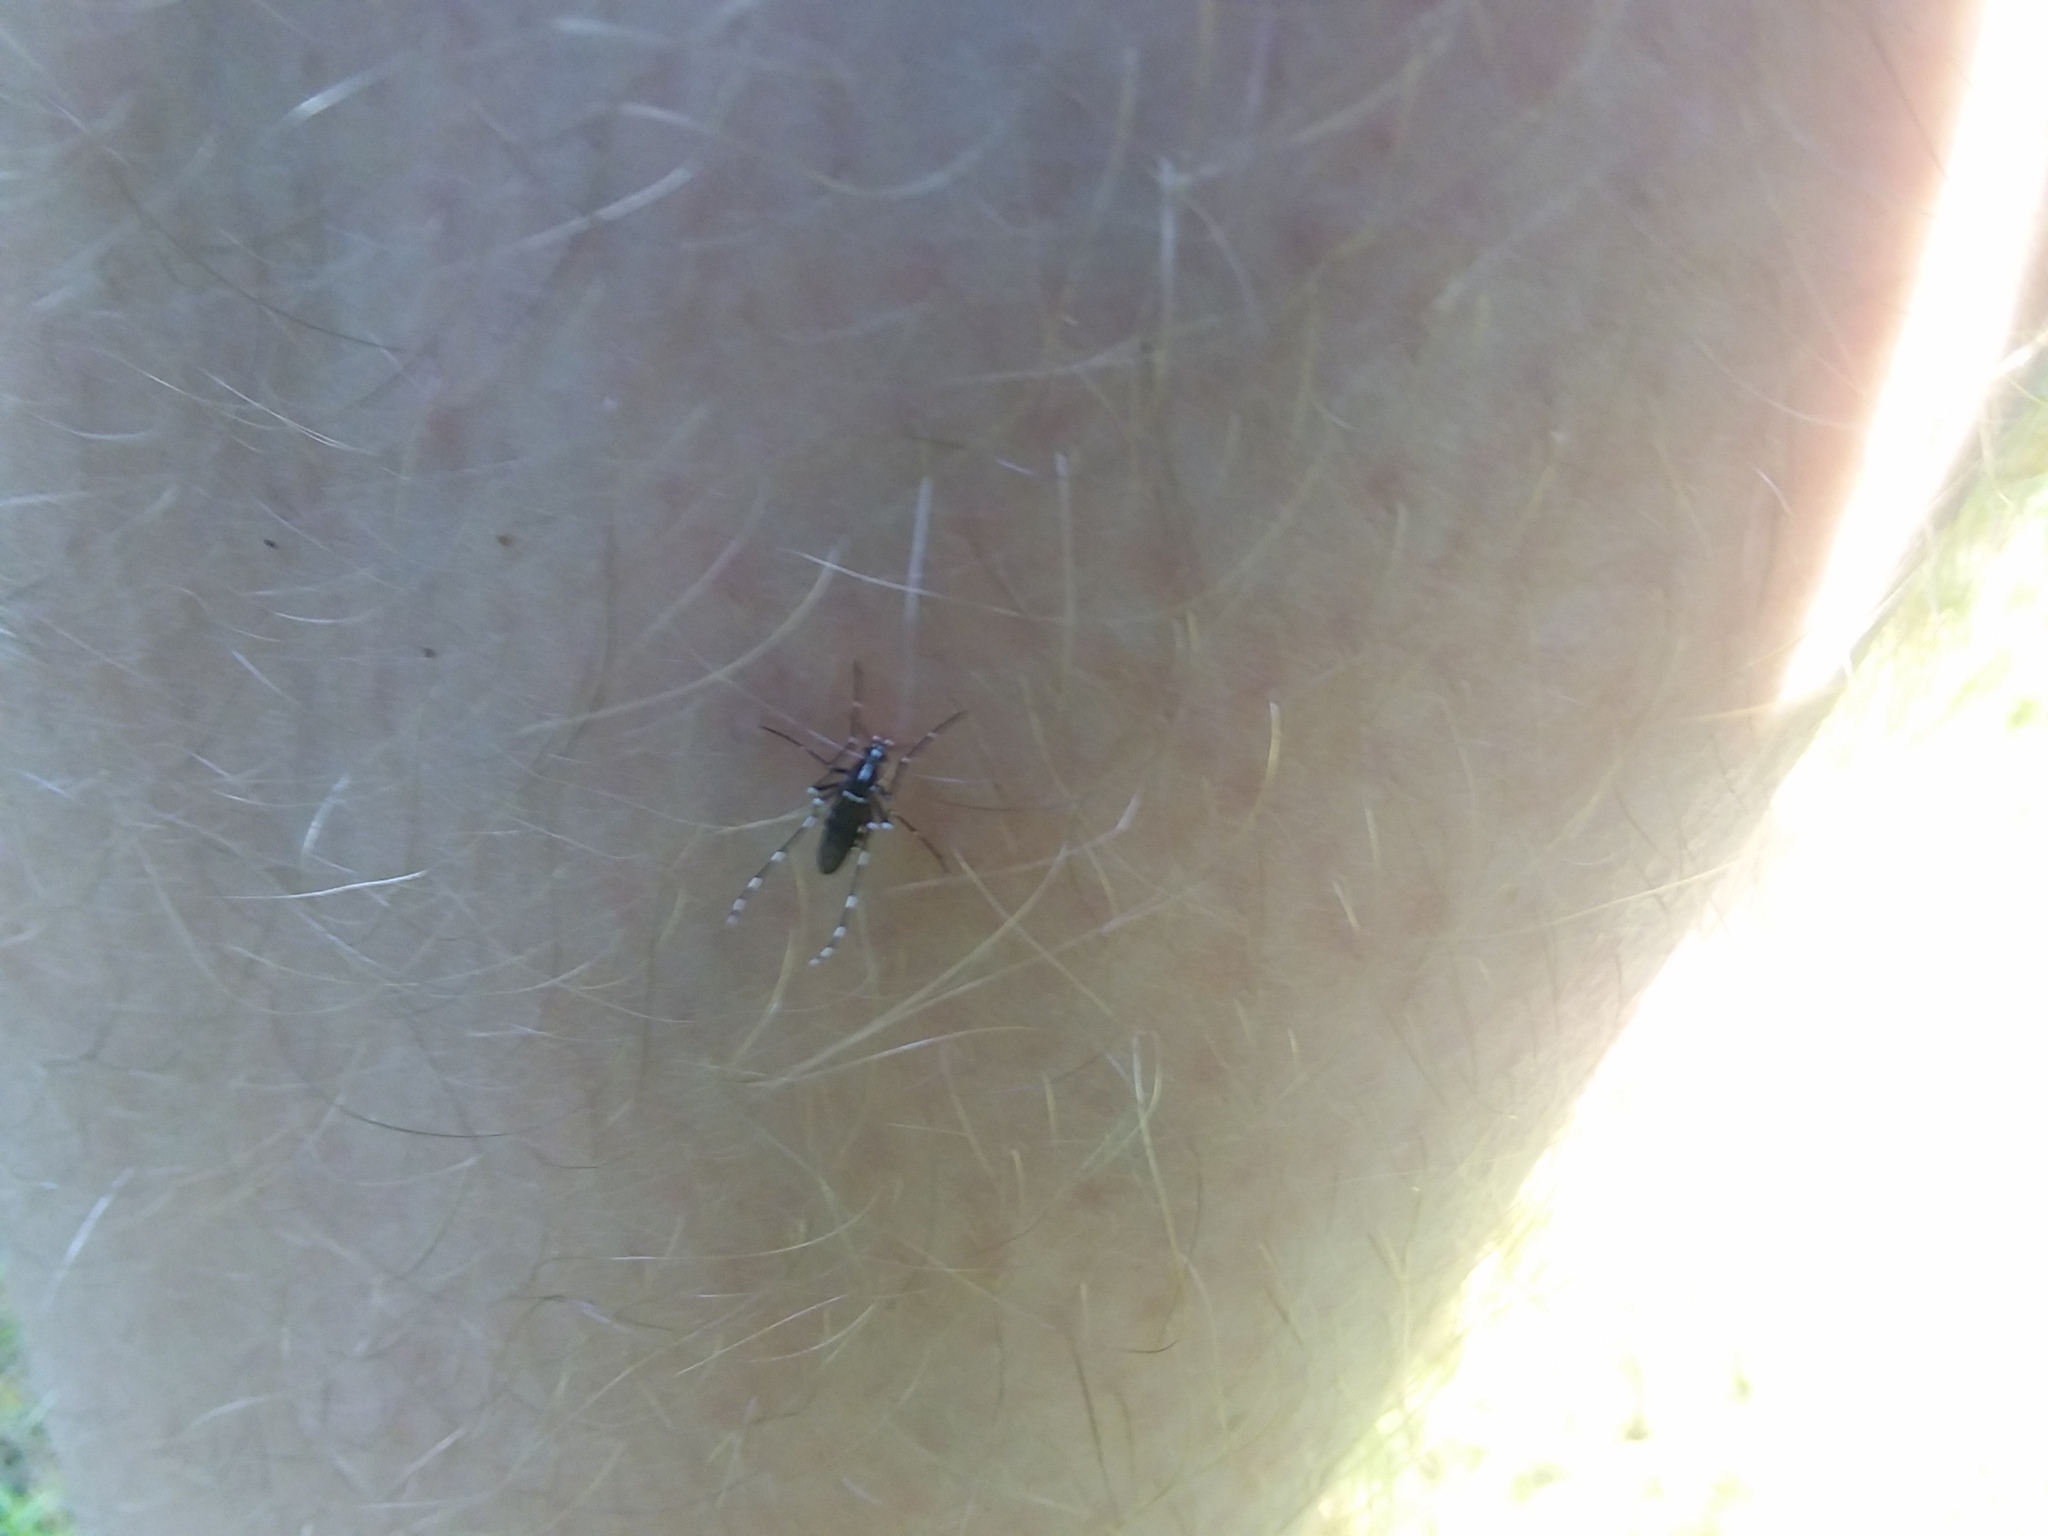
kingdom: Animalia
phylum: Arthropoda
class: Insecta
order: Diptera
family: Culicidae
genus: Aedes
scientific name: Aedes albopictus
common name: Tiger mosquito
